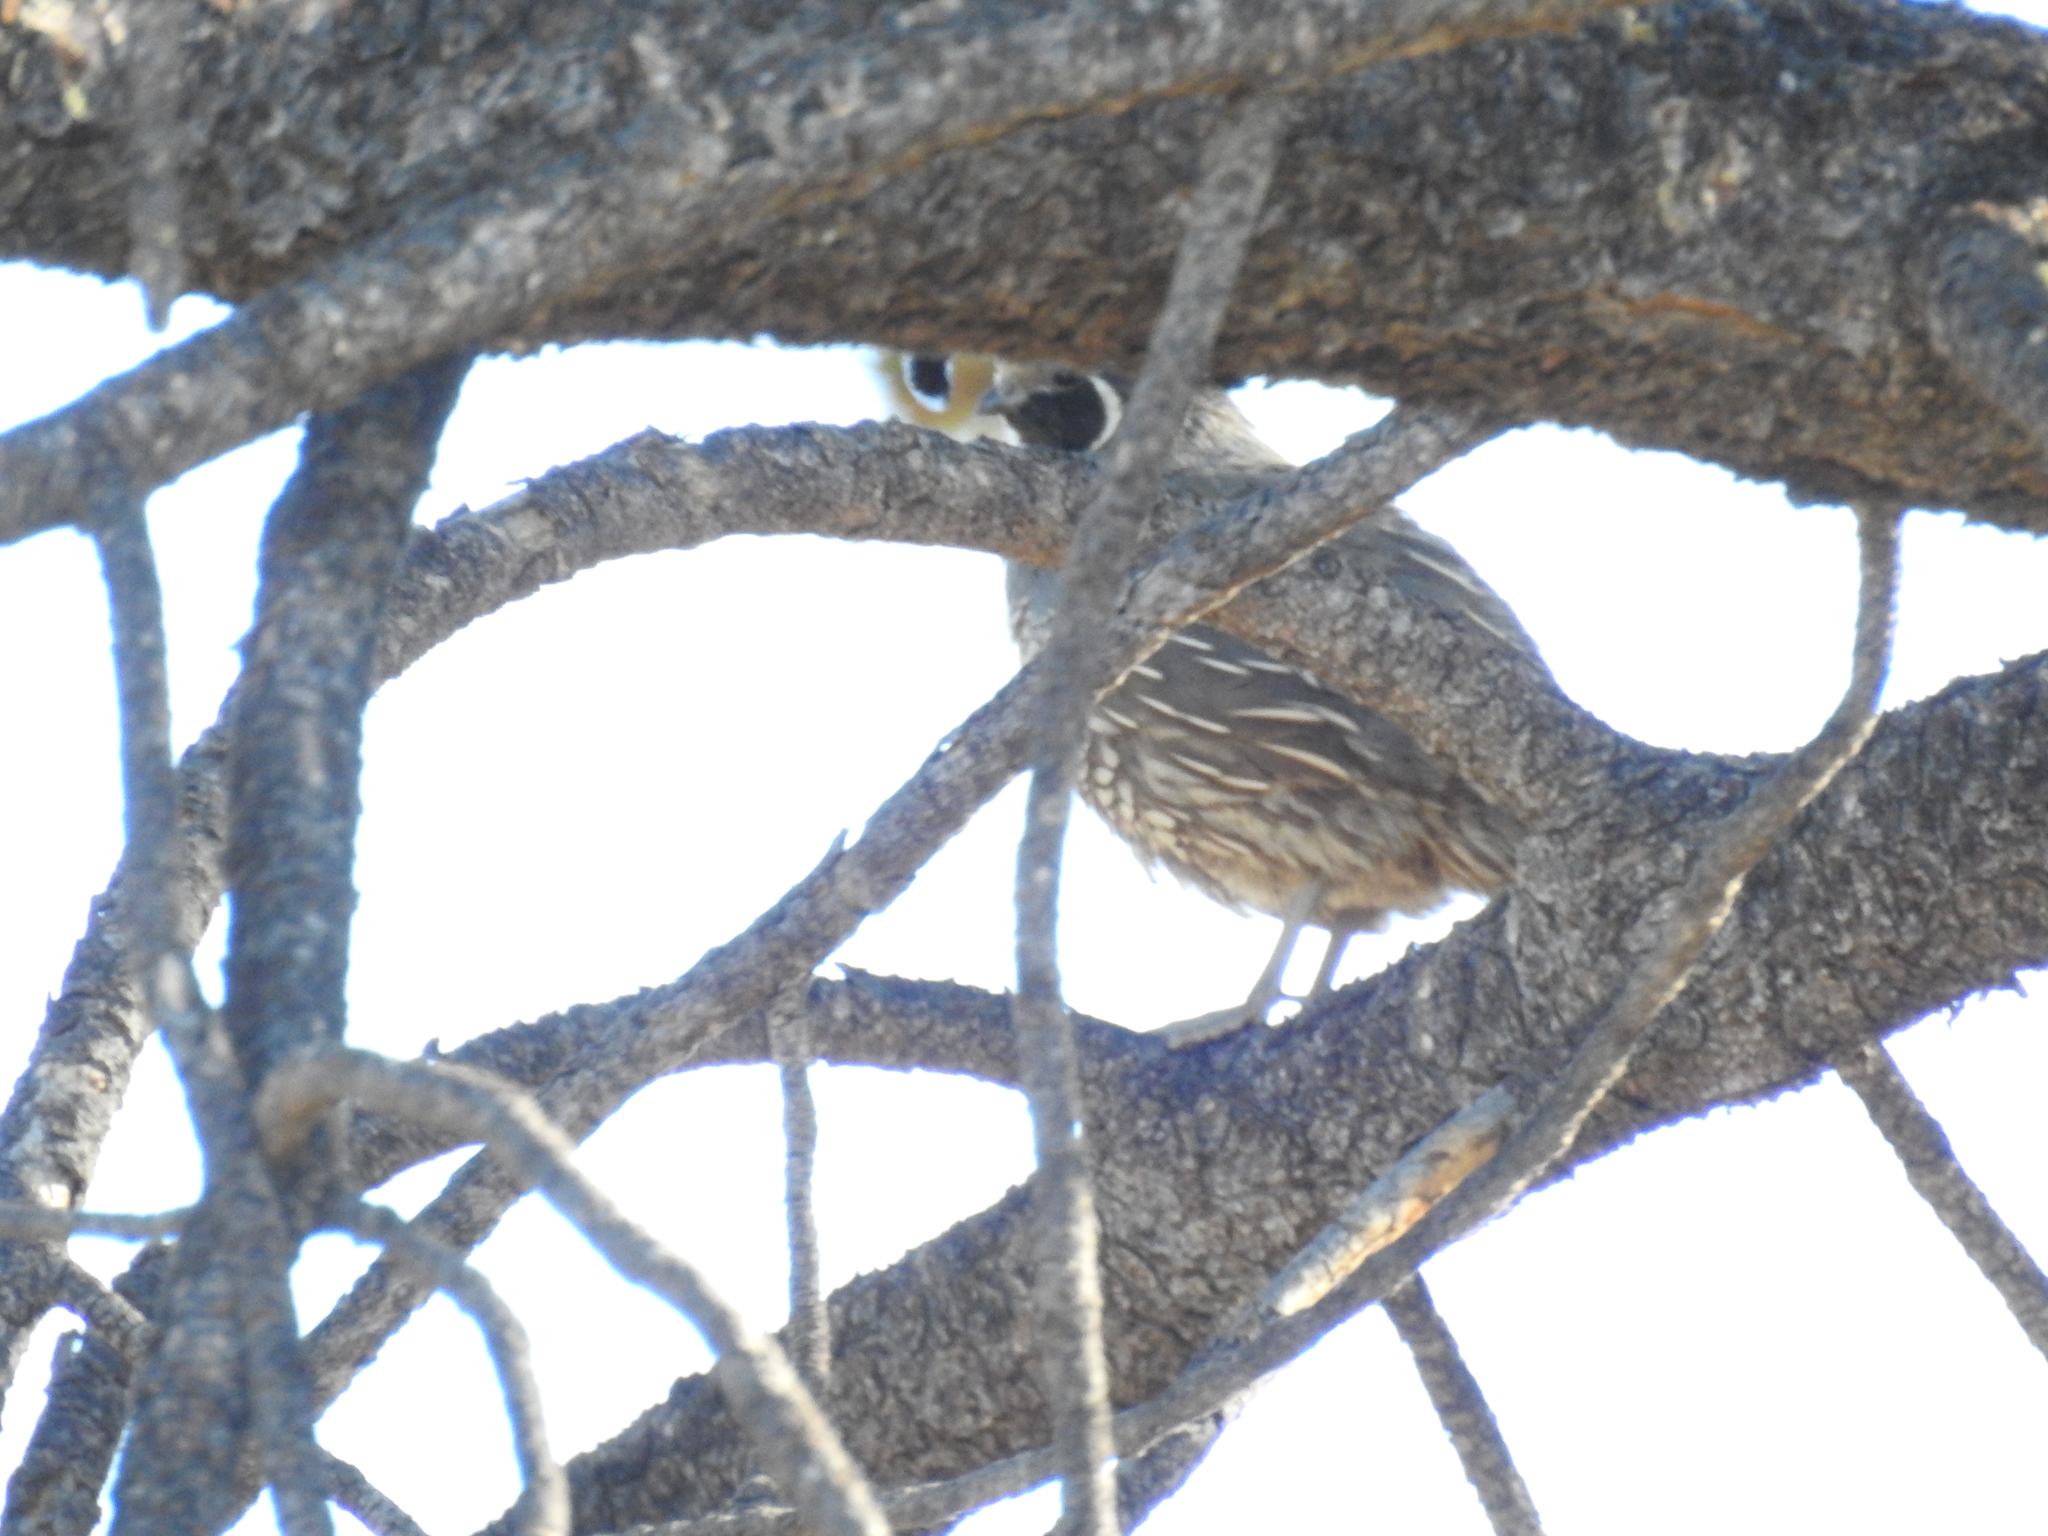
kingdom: Animalia
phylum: Chordata
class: Aves
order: Galliformes
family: Odontophoridae
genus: Callipepla
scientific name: Callipepla californica
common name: California quail
